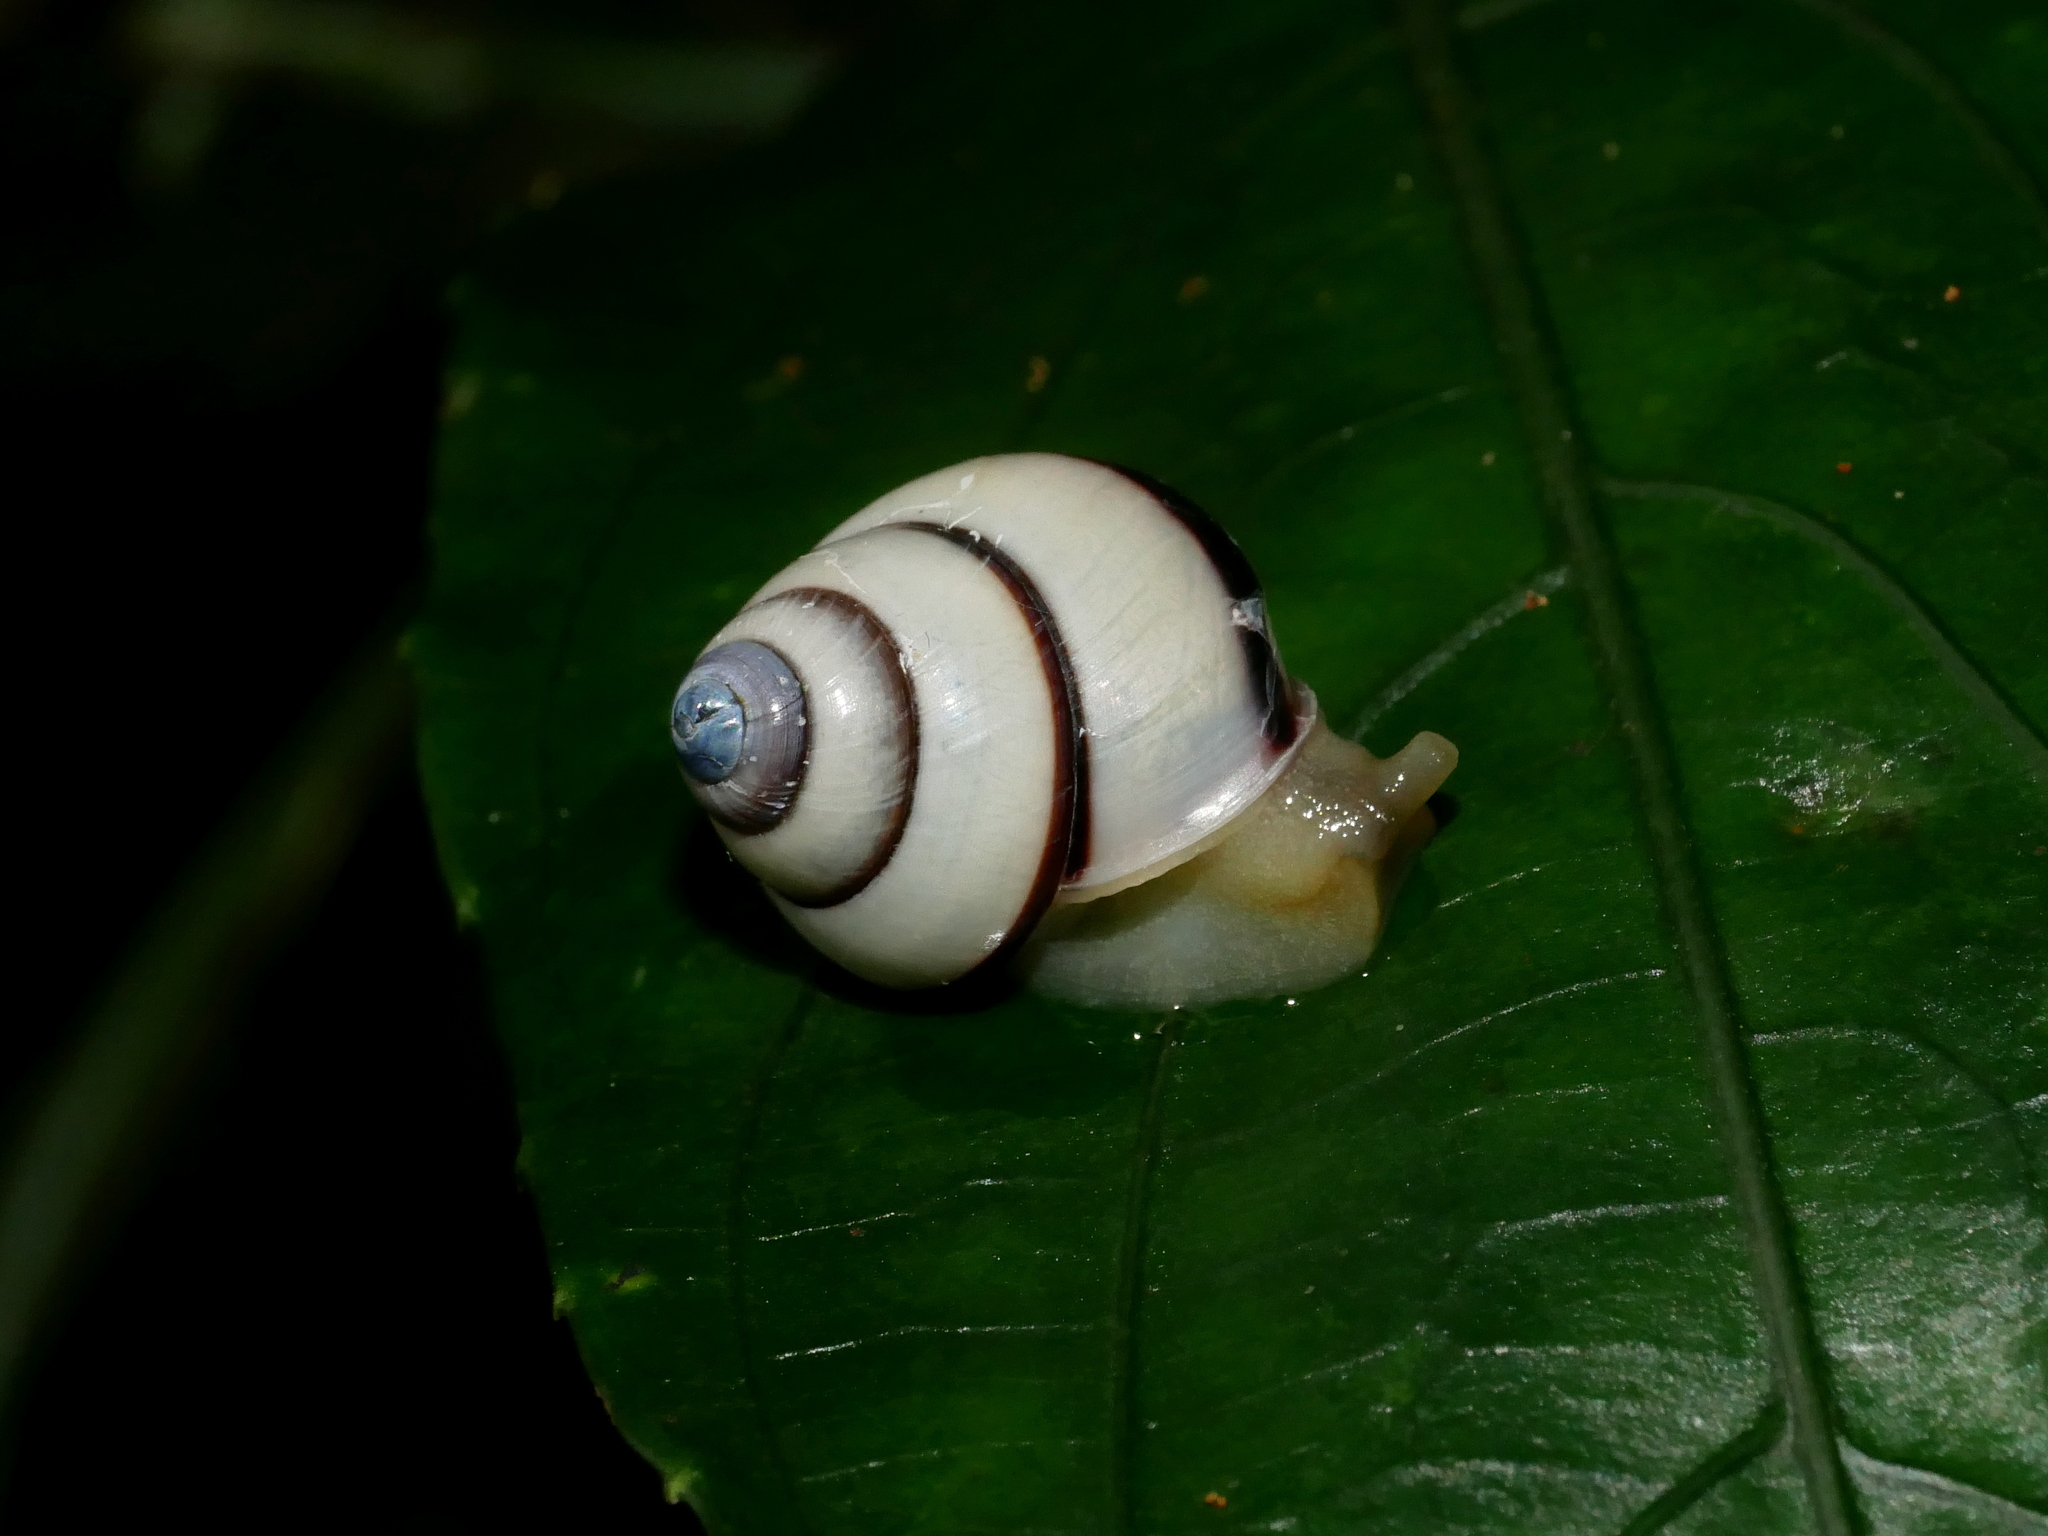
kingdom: Animalia
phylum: Mollusca
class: Gastropoda
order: Stylommatophora
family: Camaenidae
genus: Satsuma
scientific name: Satsuma polymorpha
